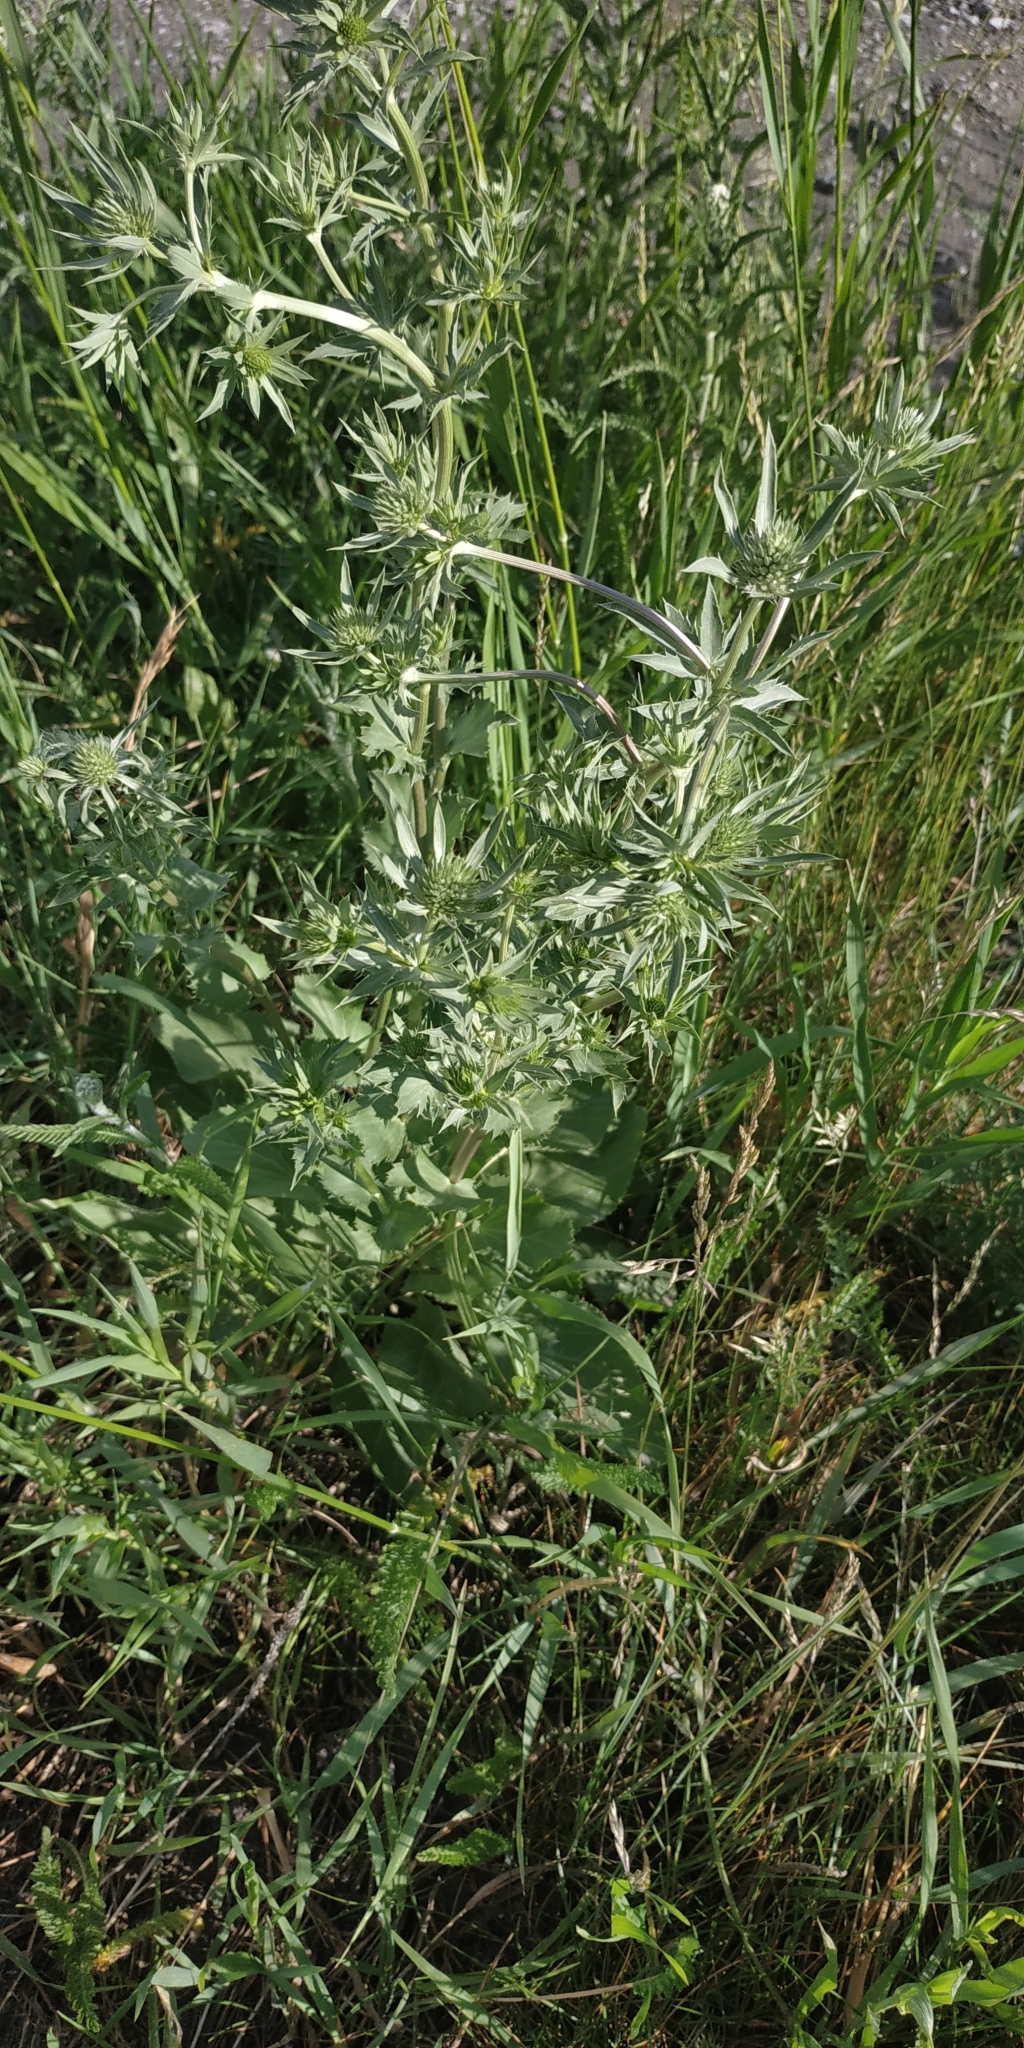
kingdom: Plantae
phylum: Tracheophyta
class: Magnoliopsida
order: Apiales
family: Apiaceae
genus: Eryngium
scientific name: Eryngium planum
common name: Blue eryngo
